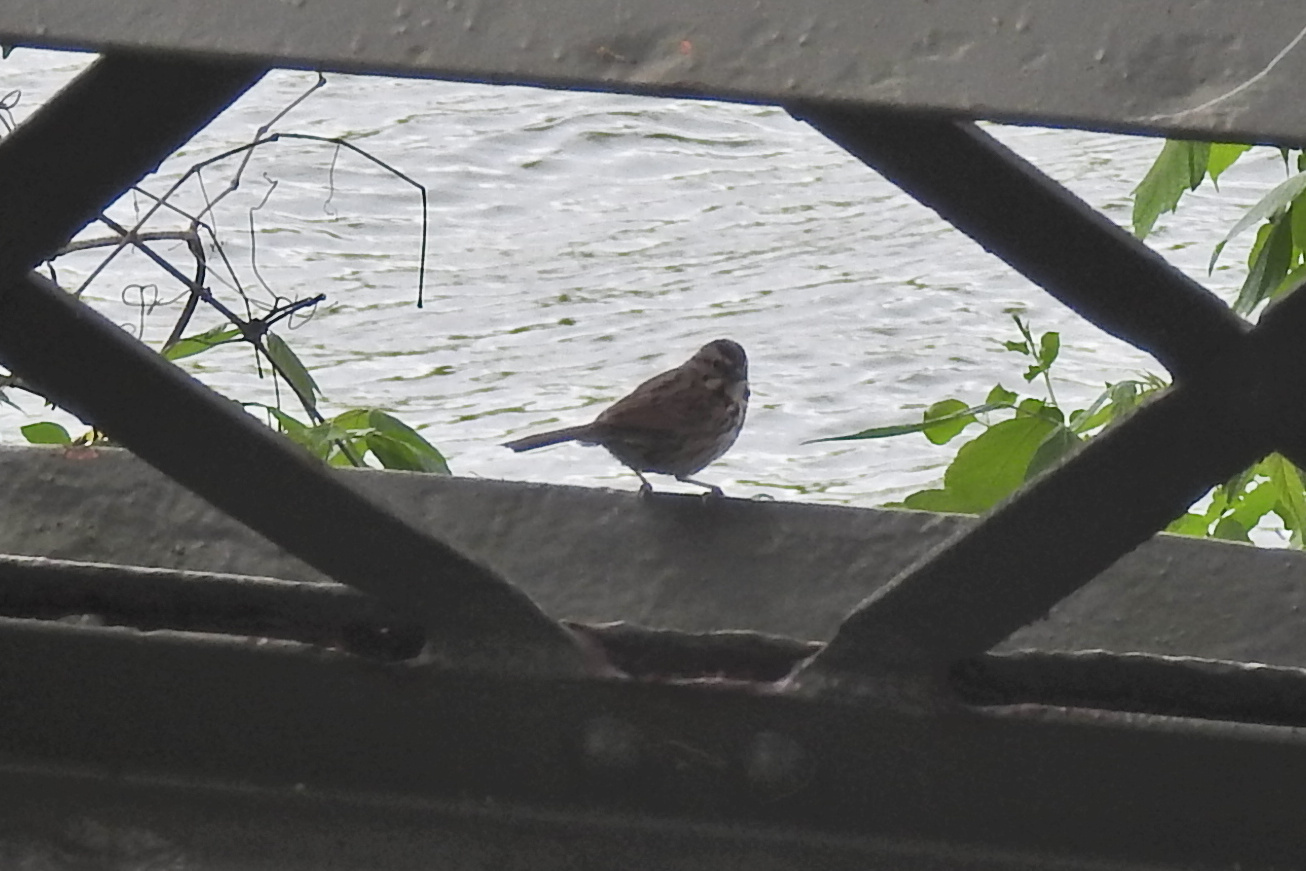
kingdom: Animalia
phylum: Chordata
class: Aves
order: Passeriformes
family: Passerellidae
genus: Melospiza
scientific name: Melospiza melodia
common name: Song sparrow
